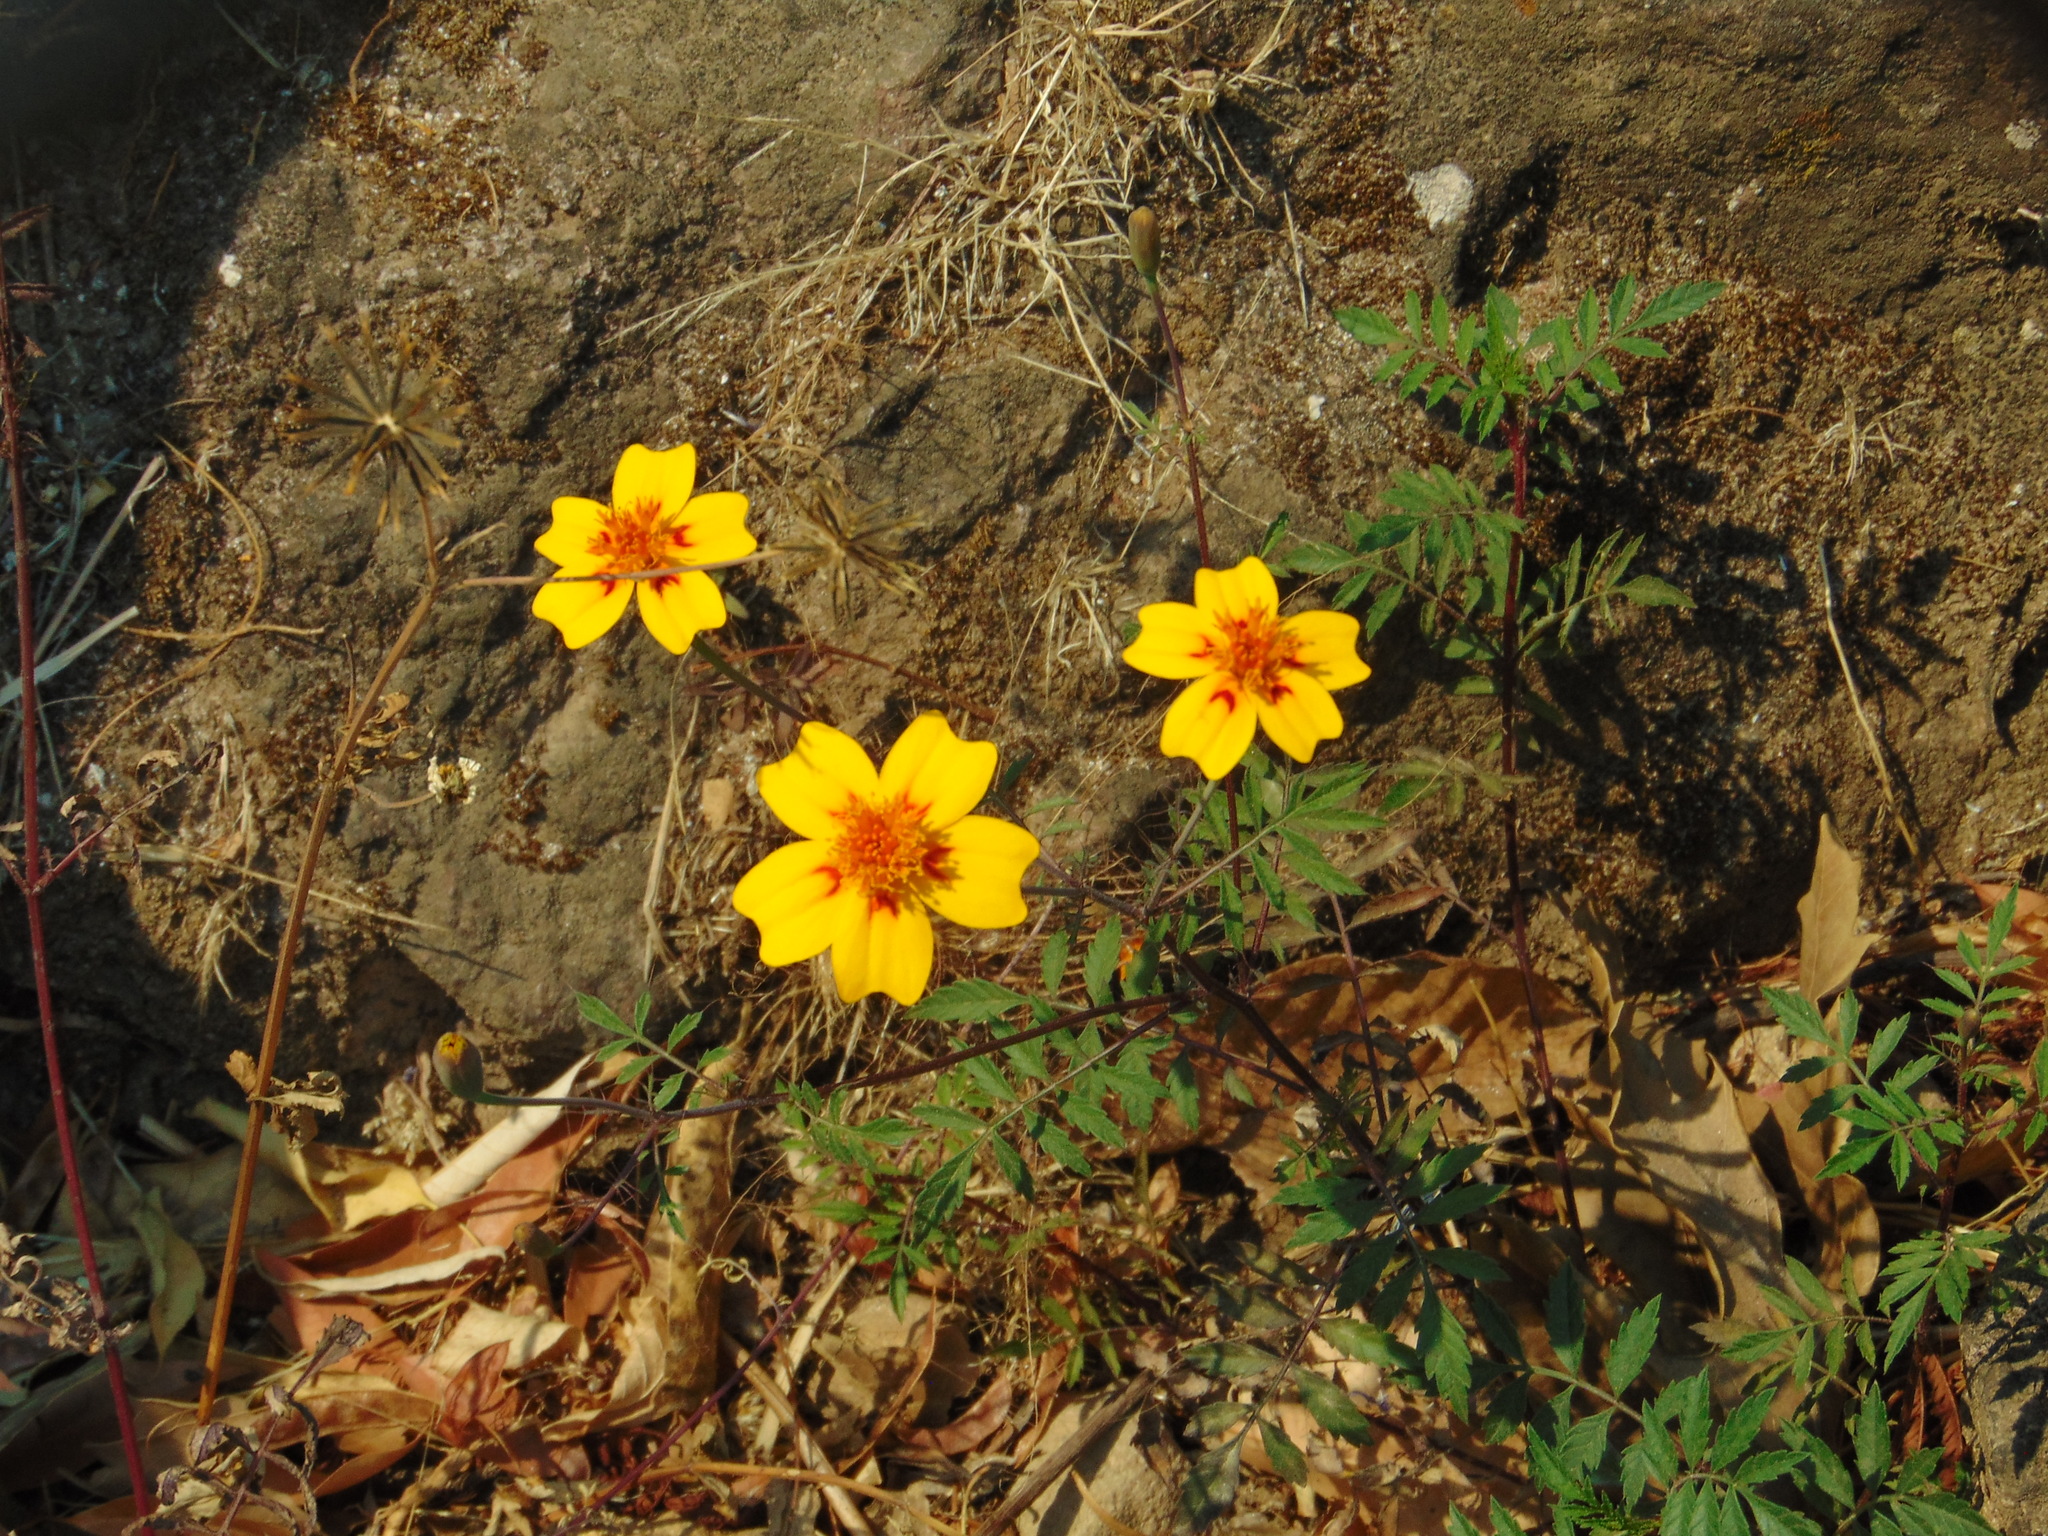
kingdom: Plantae
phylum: Tracheophyta
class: Magnoliopsida
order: Asterales
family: Asteraceae
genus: Tagetes
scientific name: Tagetes lunulata
